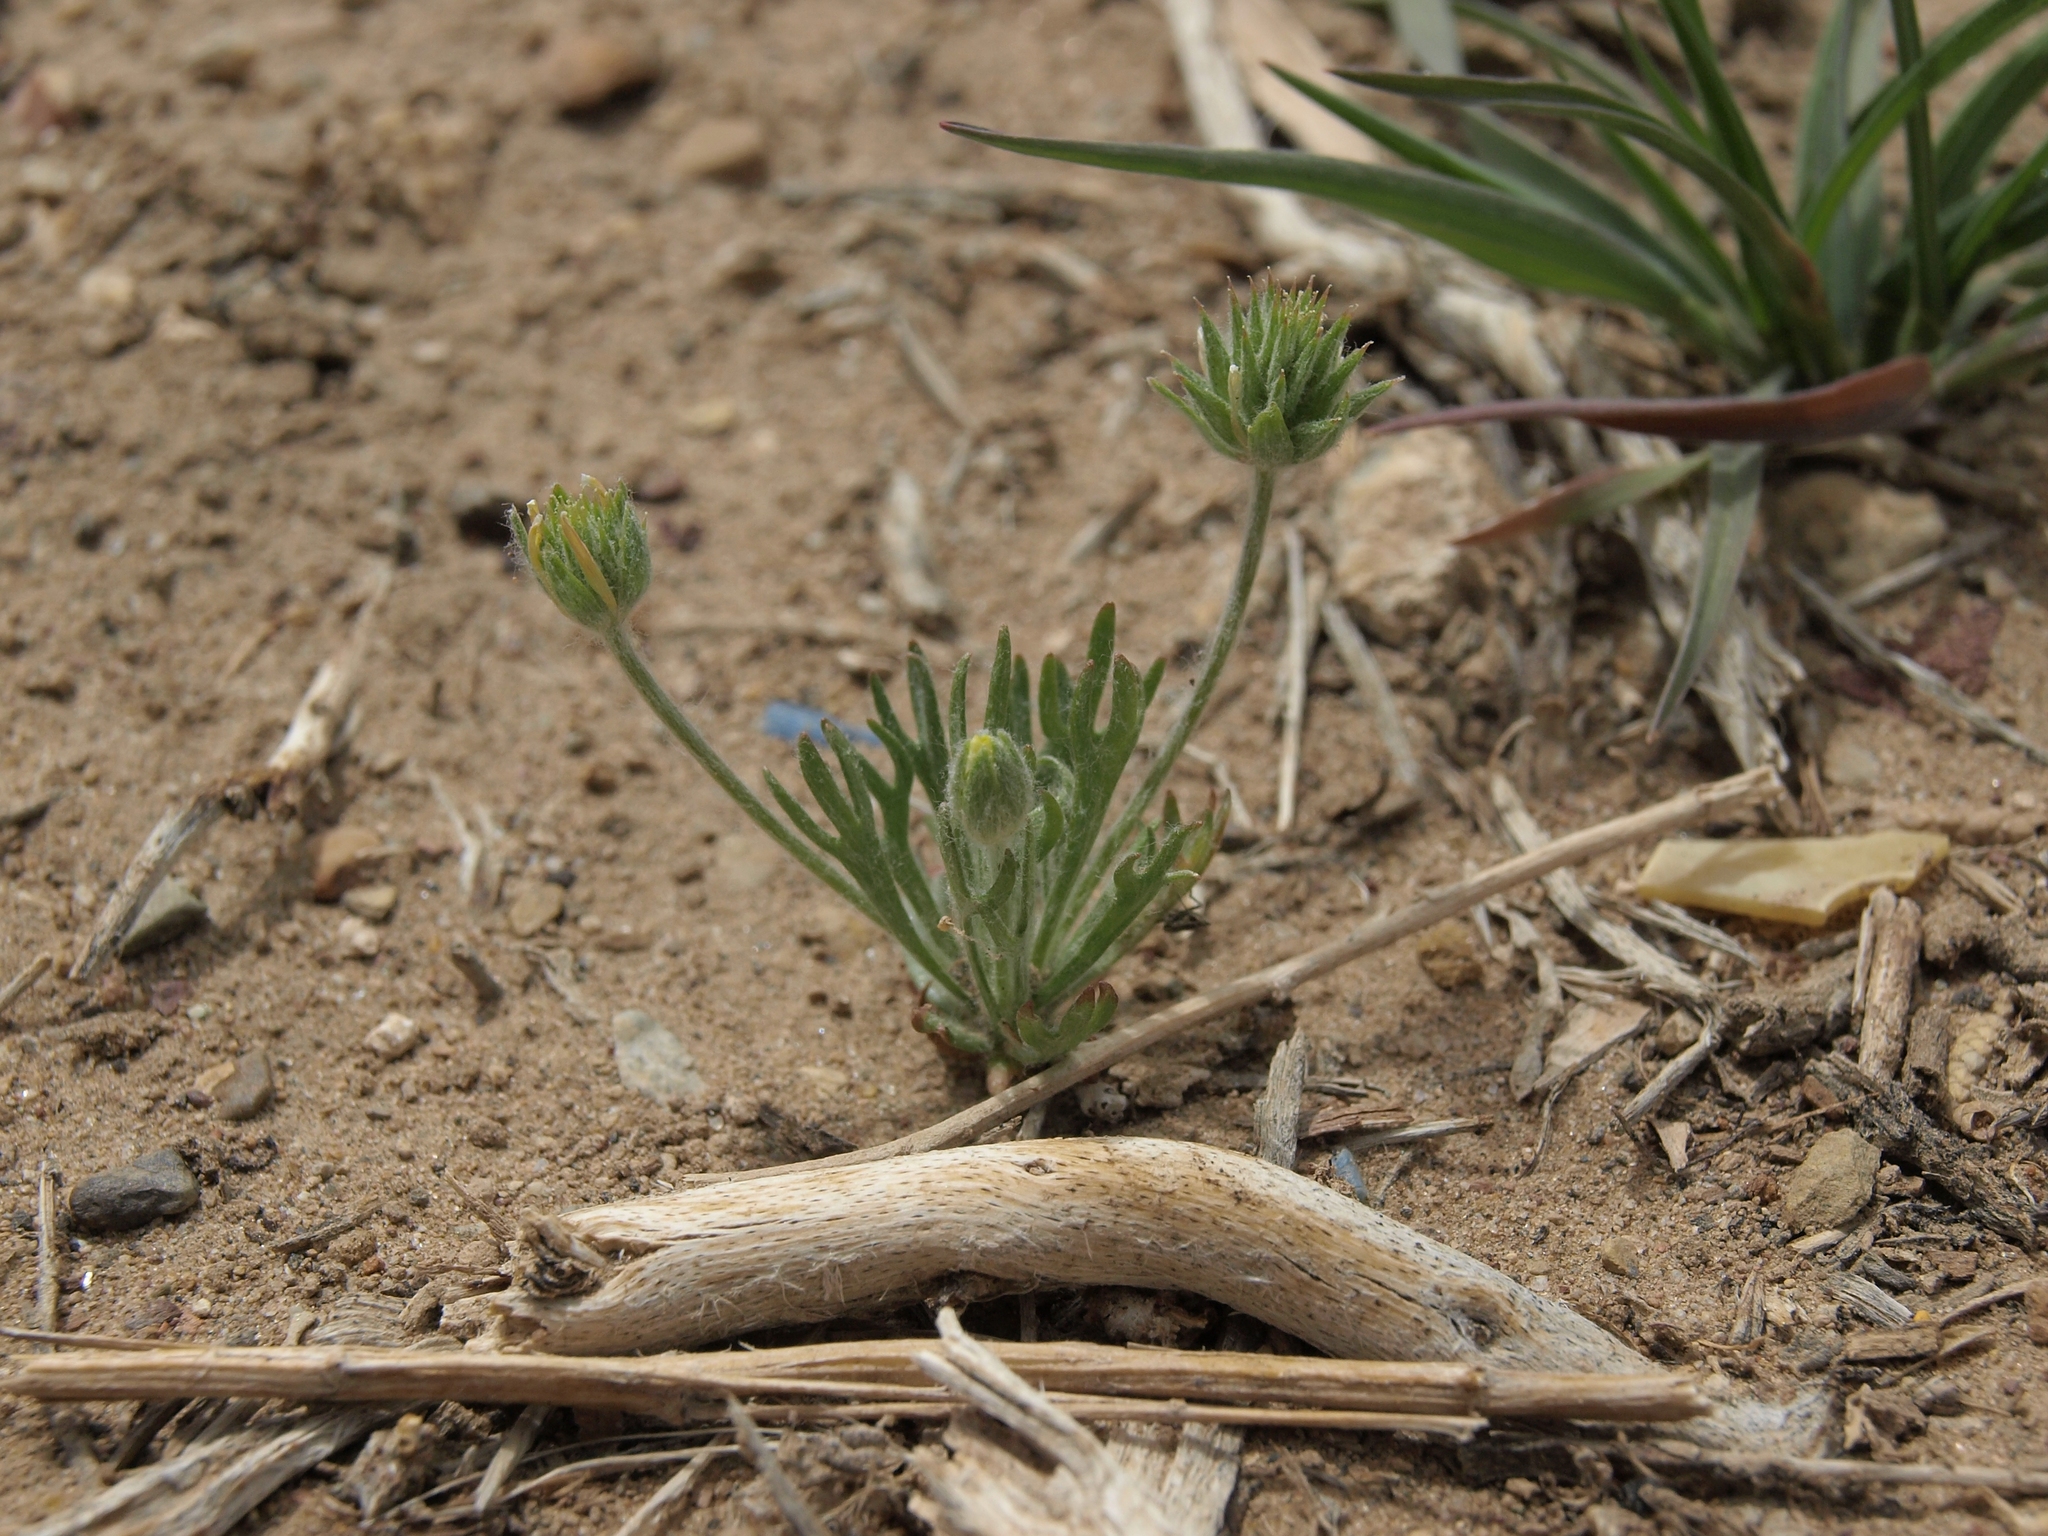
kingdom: Plantae
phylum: Tracheophyta
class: Magnoliopsida
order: Ranunculales
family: Ranunculaceae
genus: Ceratocephala
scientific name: Ceratocephala orthoceras
